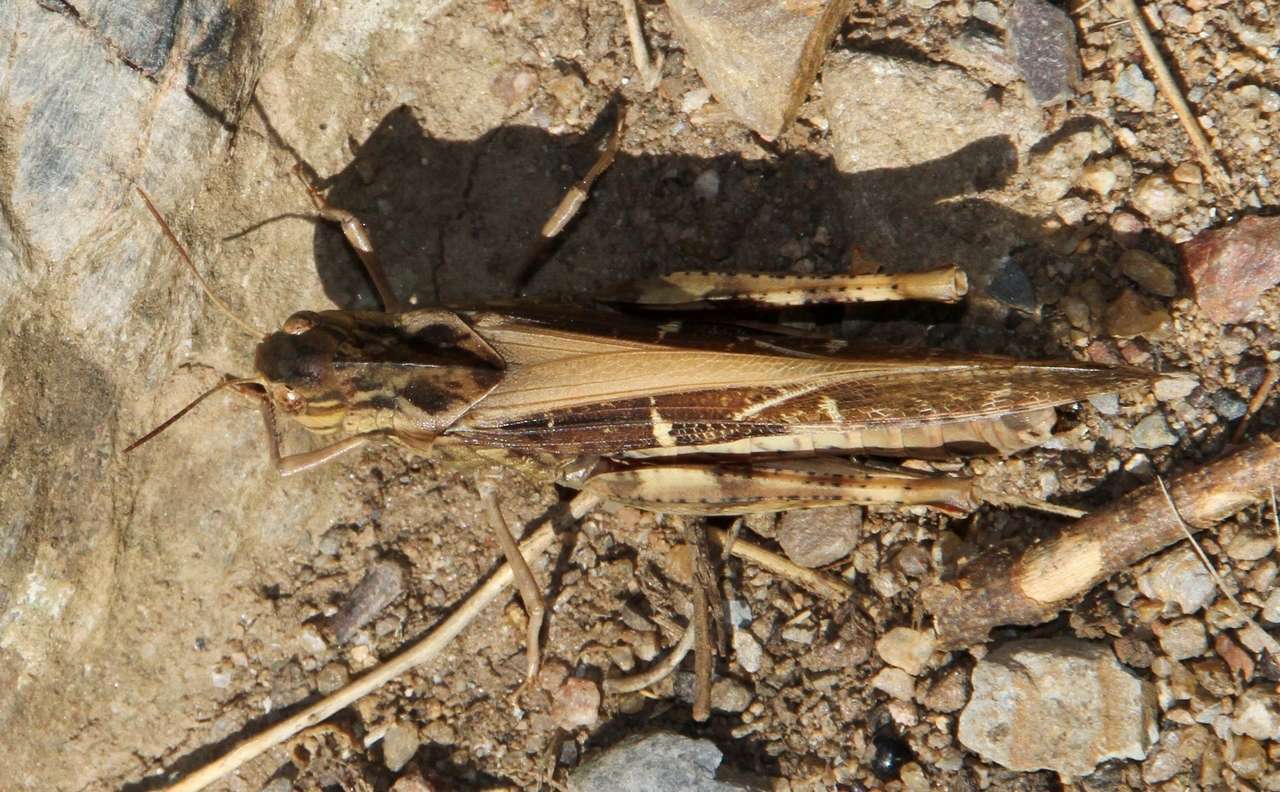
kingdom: Animalia
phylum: Arthropoda
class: Insecta
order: Orthoptera
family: Acrididae
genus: Gastrimargus
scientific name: Gastrimargus musicus
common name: Yellow-winged locust
